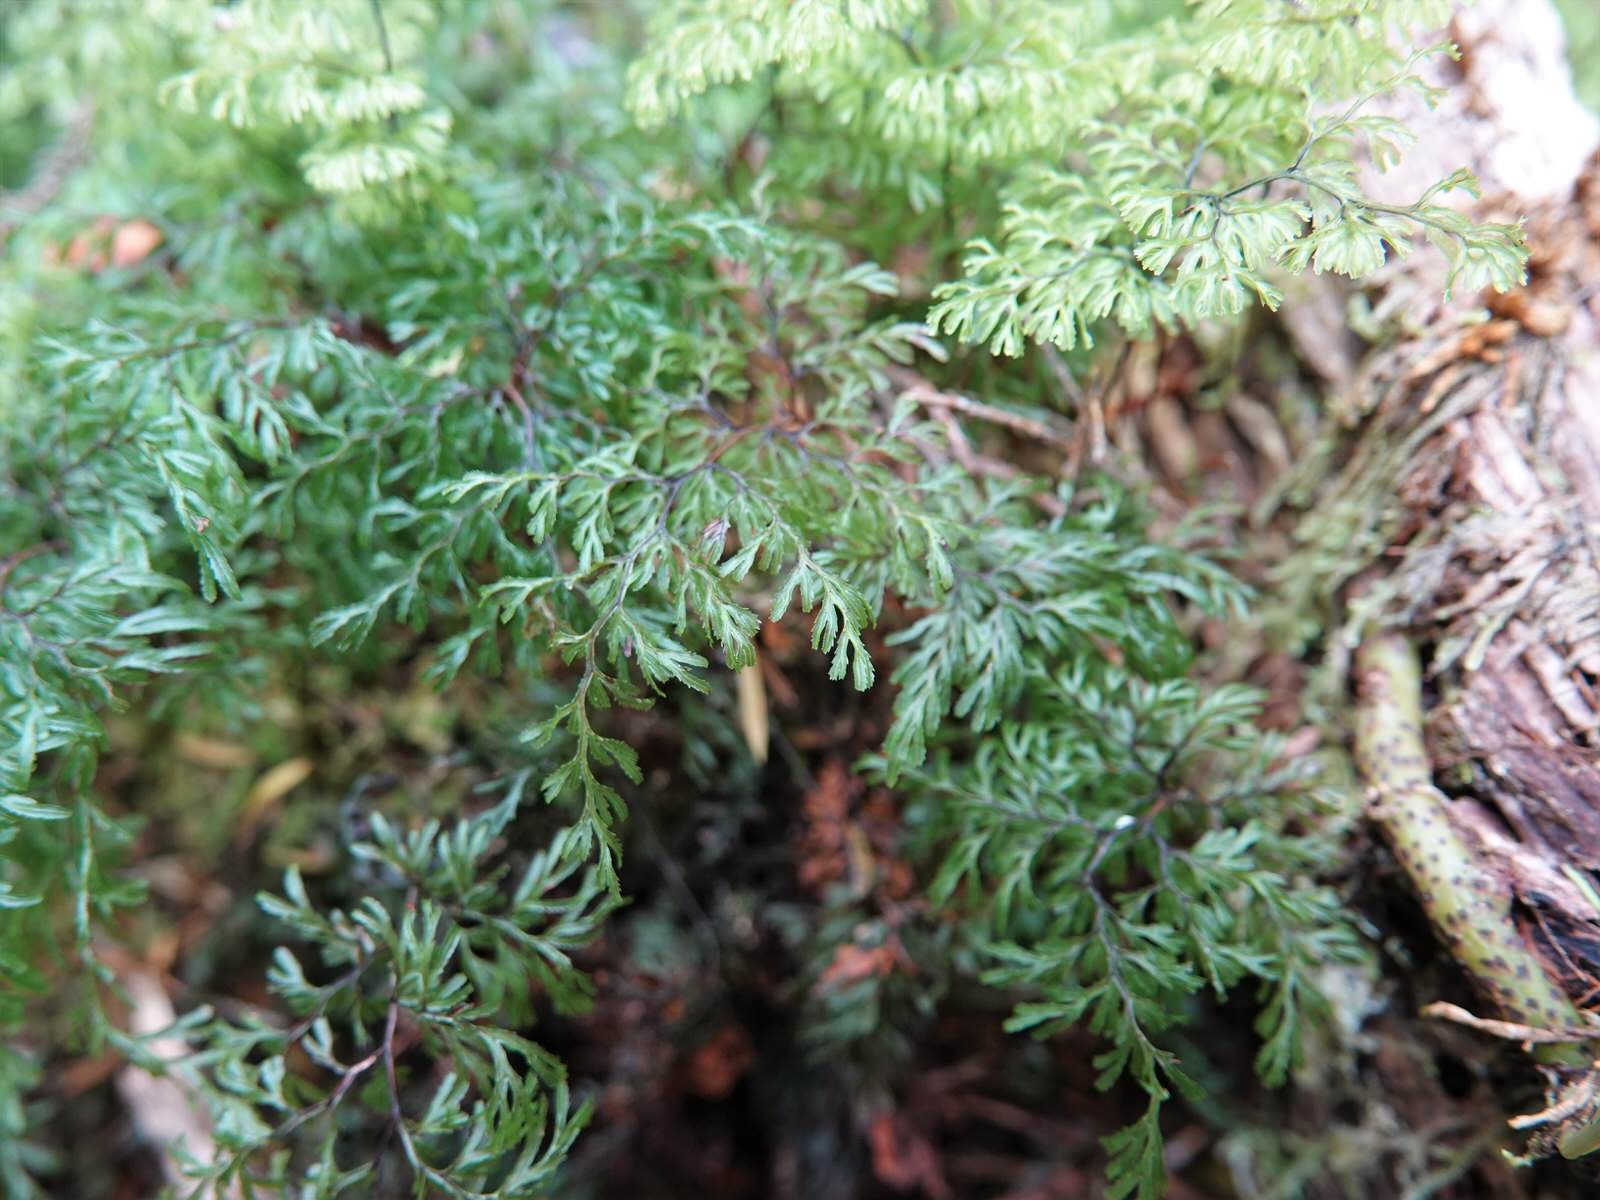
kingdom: Plantae
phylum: Tracheophyta
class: Polypodiopsida
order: Hymenophyllales
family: Hymenophyllaceae
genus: Hymenophyllum
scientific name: Hymenophyllum multifidum
